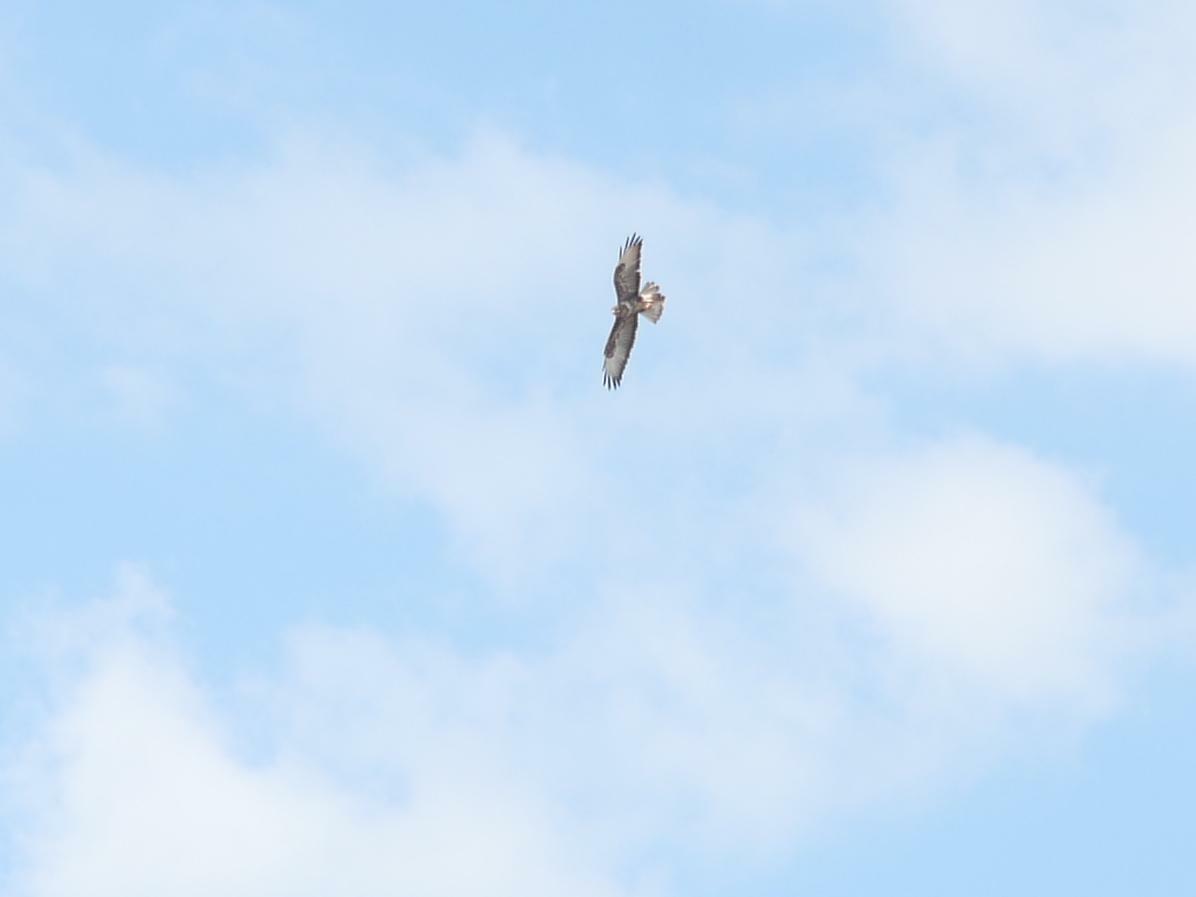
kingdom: Animalia
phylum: Chordata
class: Aves
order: Accipitriformes
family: Accipitridae
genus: Buteo
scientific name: Buteo buteo
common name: Common buzzard
